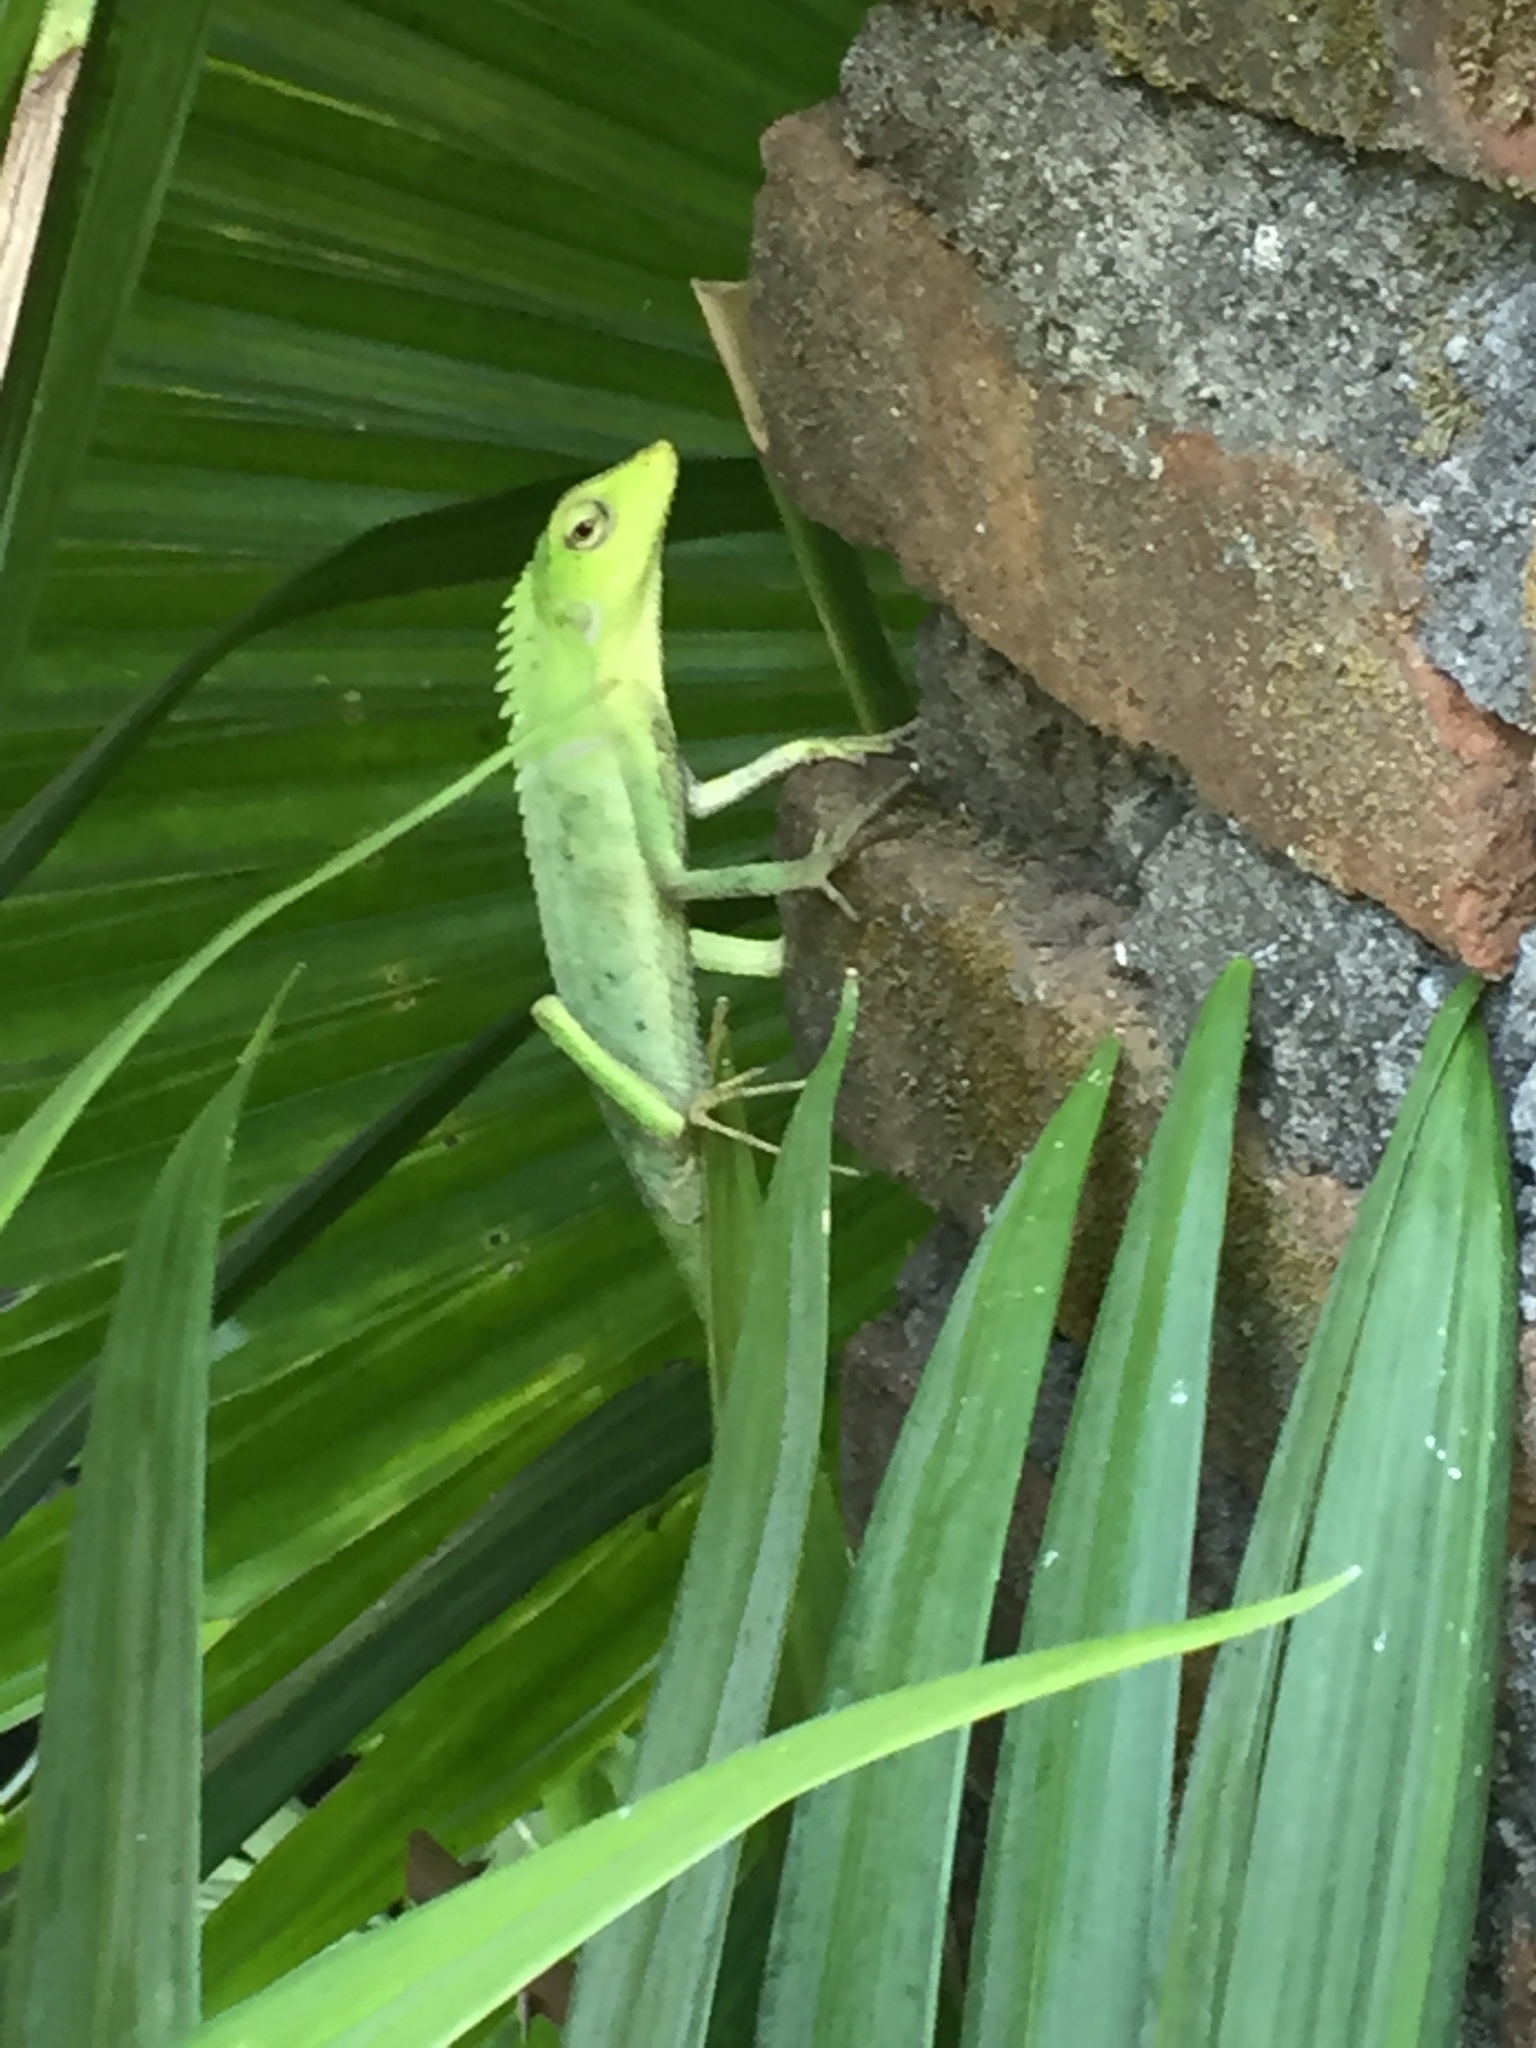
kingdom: Animalia
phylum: Chordata
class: Squamata
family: Agamidae
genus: Bronchocela
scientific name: Bronchocela jubata
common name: Maned forest lizard
